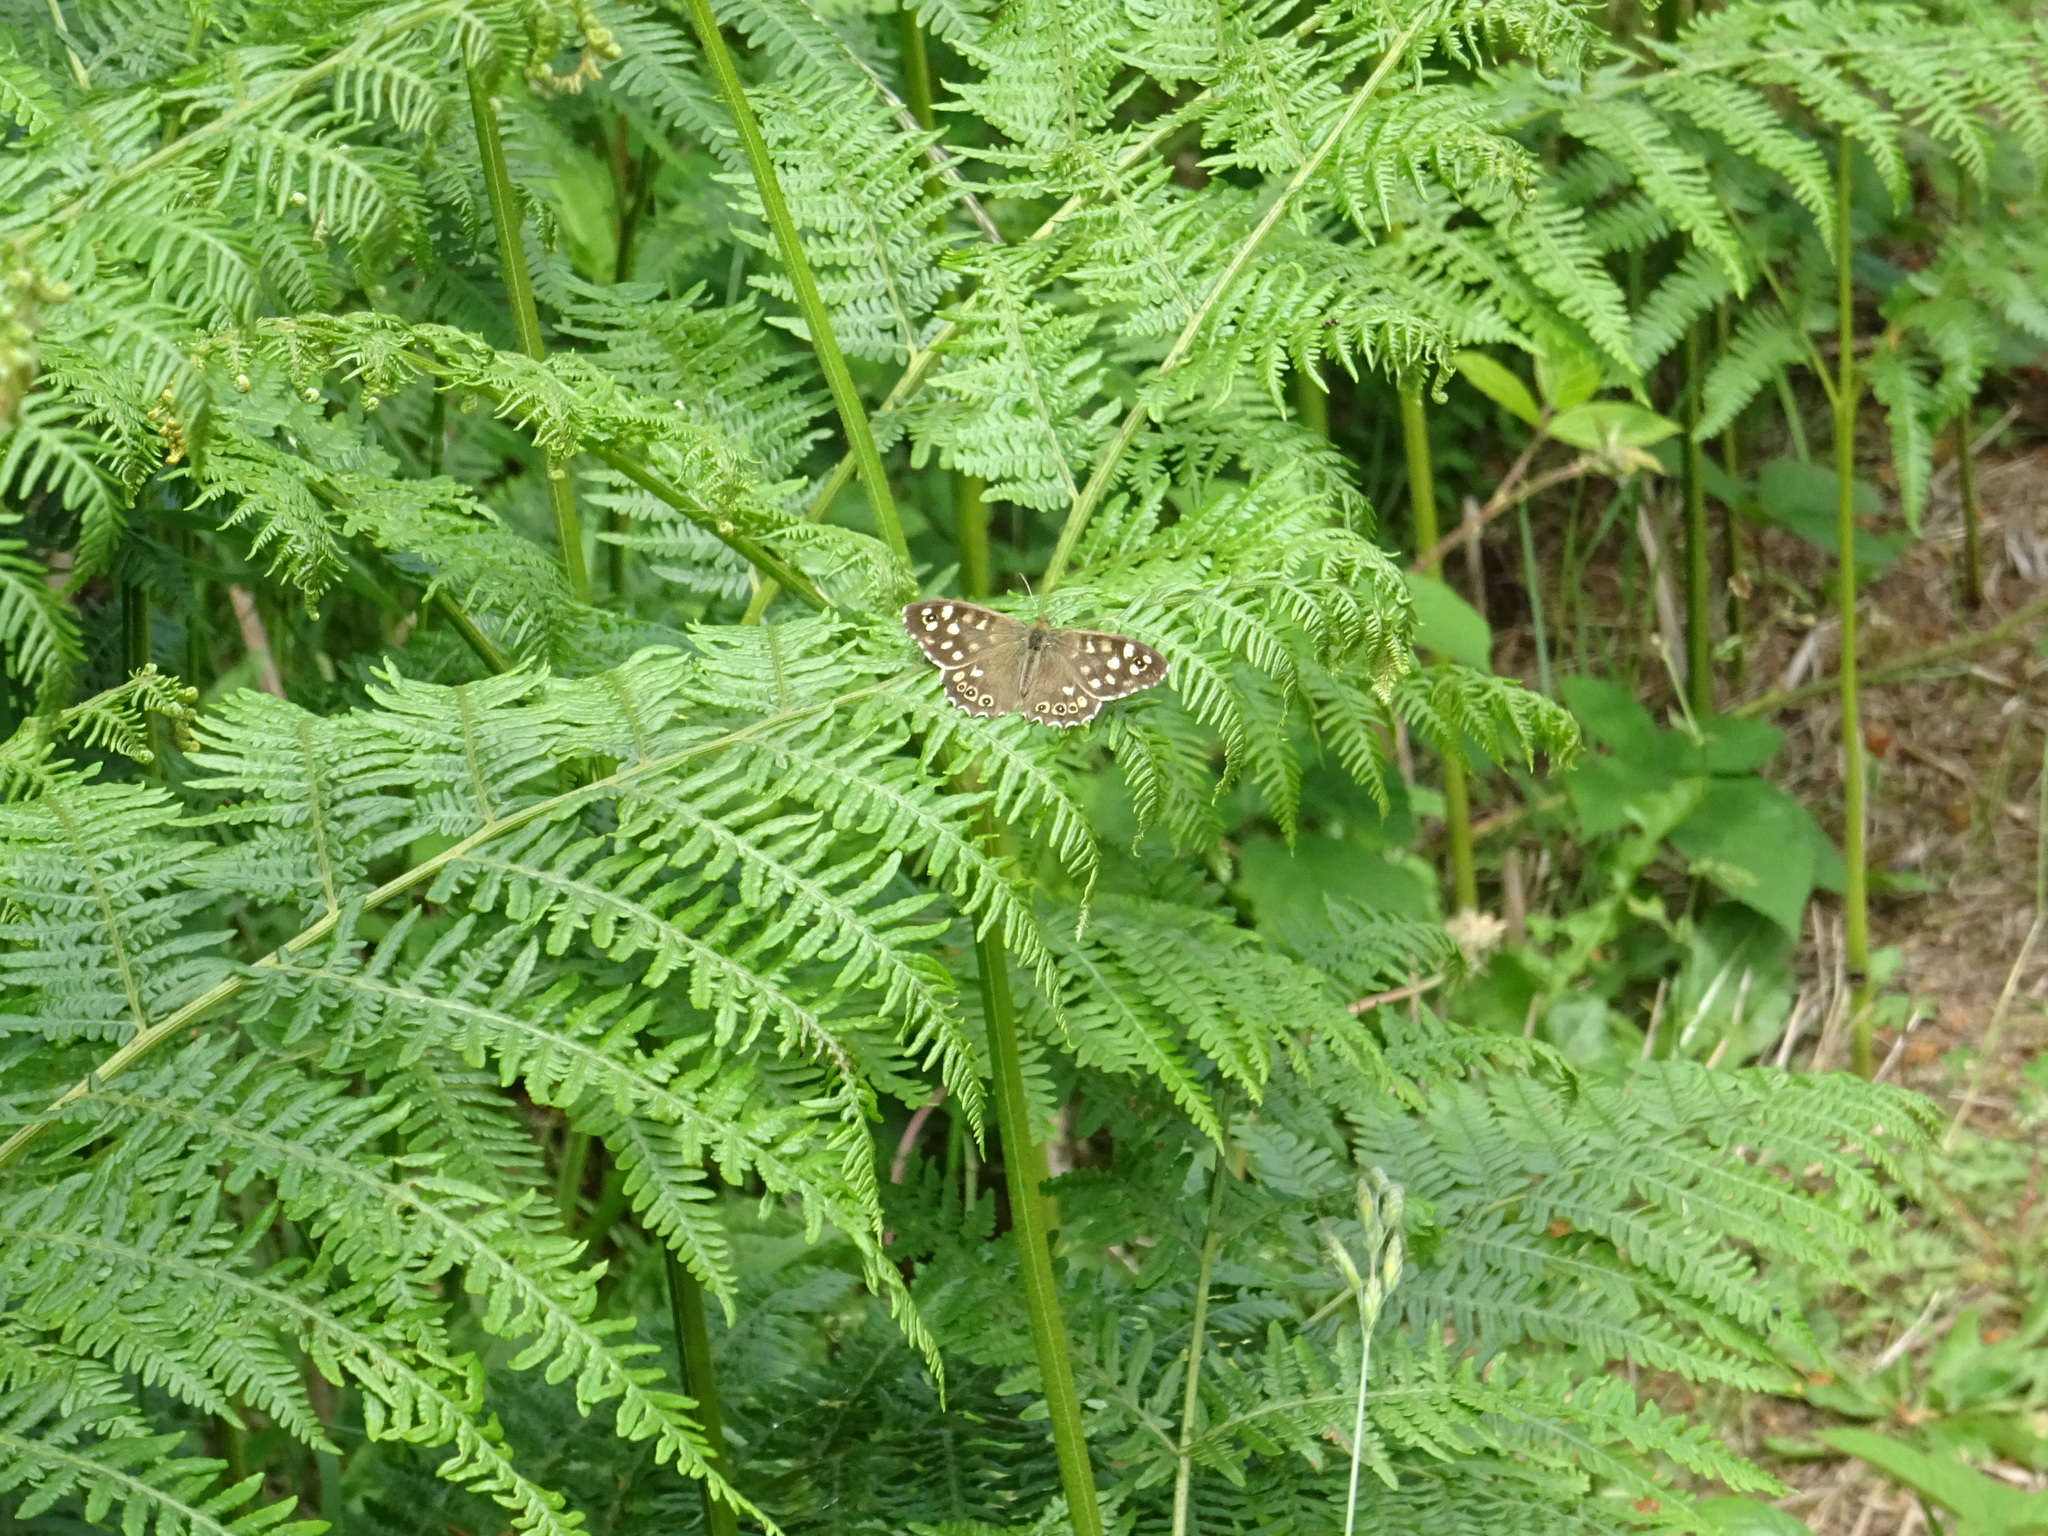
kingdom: Animalia
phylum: Arthropoda
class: Insecta
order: Lepidoptera
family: Nymphalidae
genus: Pararge
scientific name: Pararge aegeria
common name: Speckled wood
